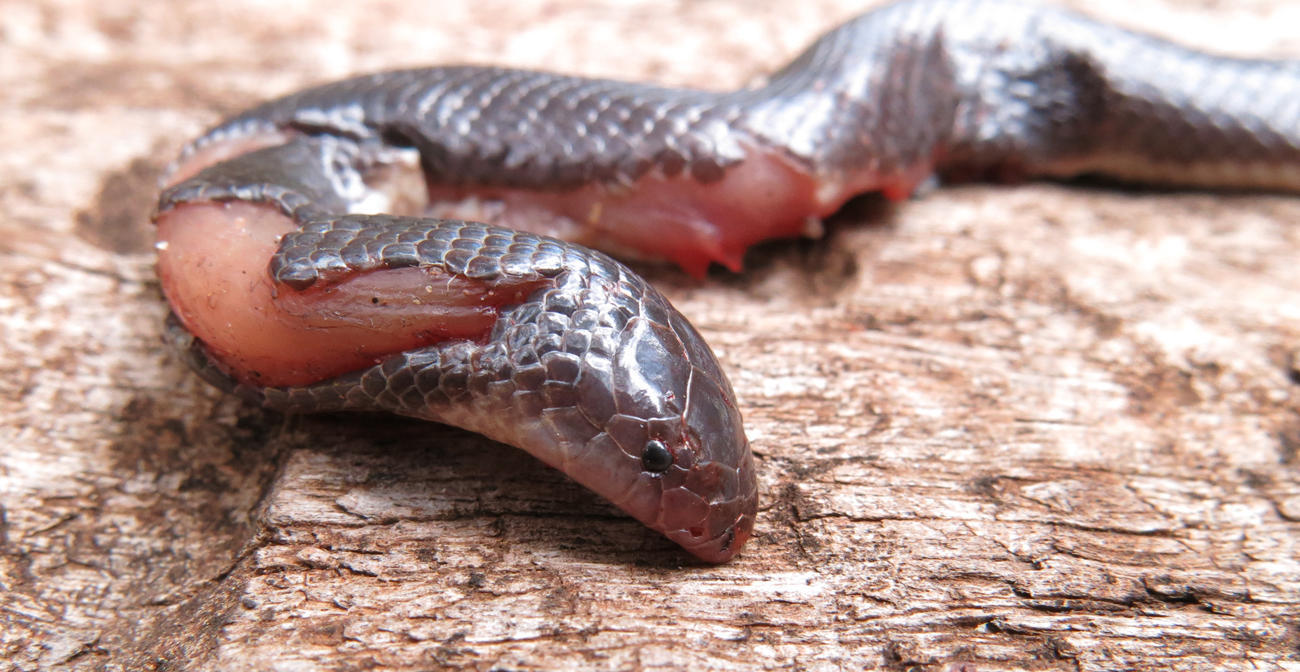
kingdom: Animalia
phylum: Chordata
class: Squamata
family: Atractaspididae
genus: Atractaspis
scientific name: Atractaspis duerdeni
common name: Beaked burrowing asp
